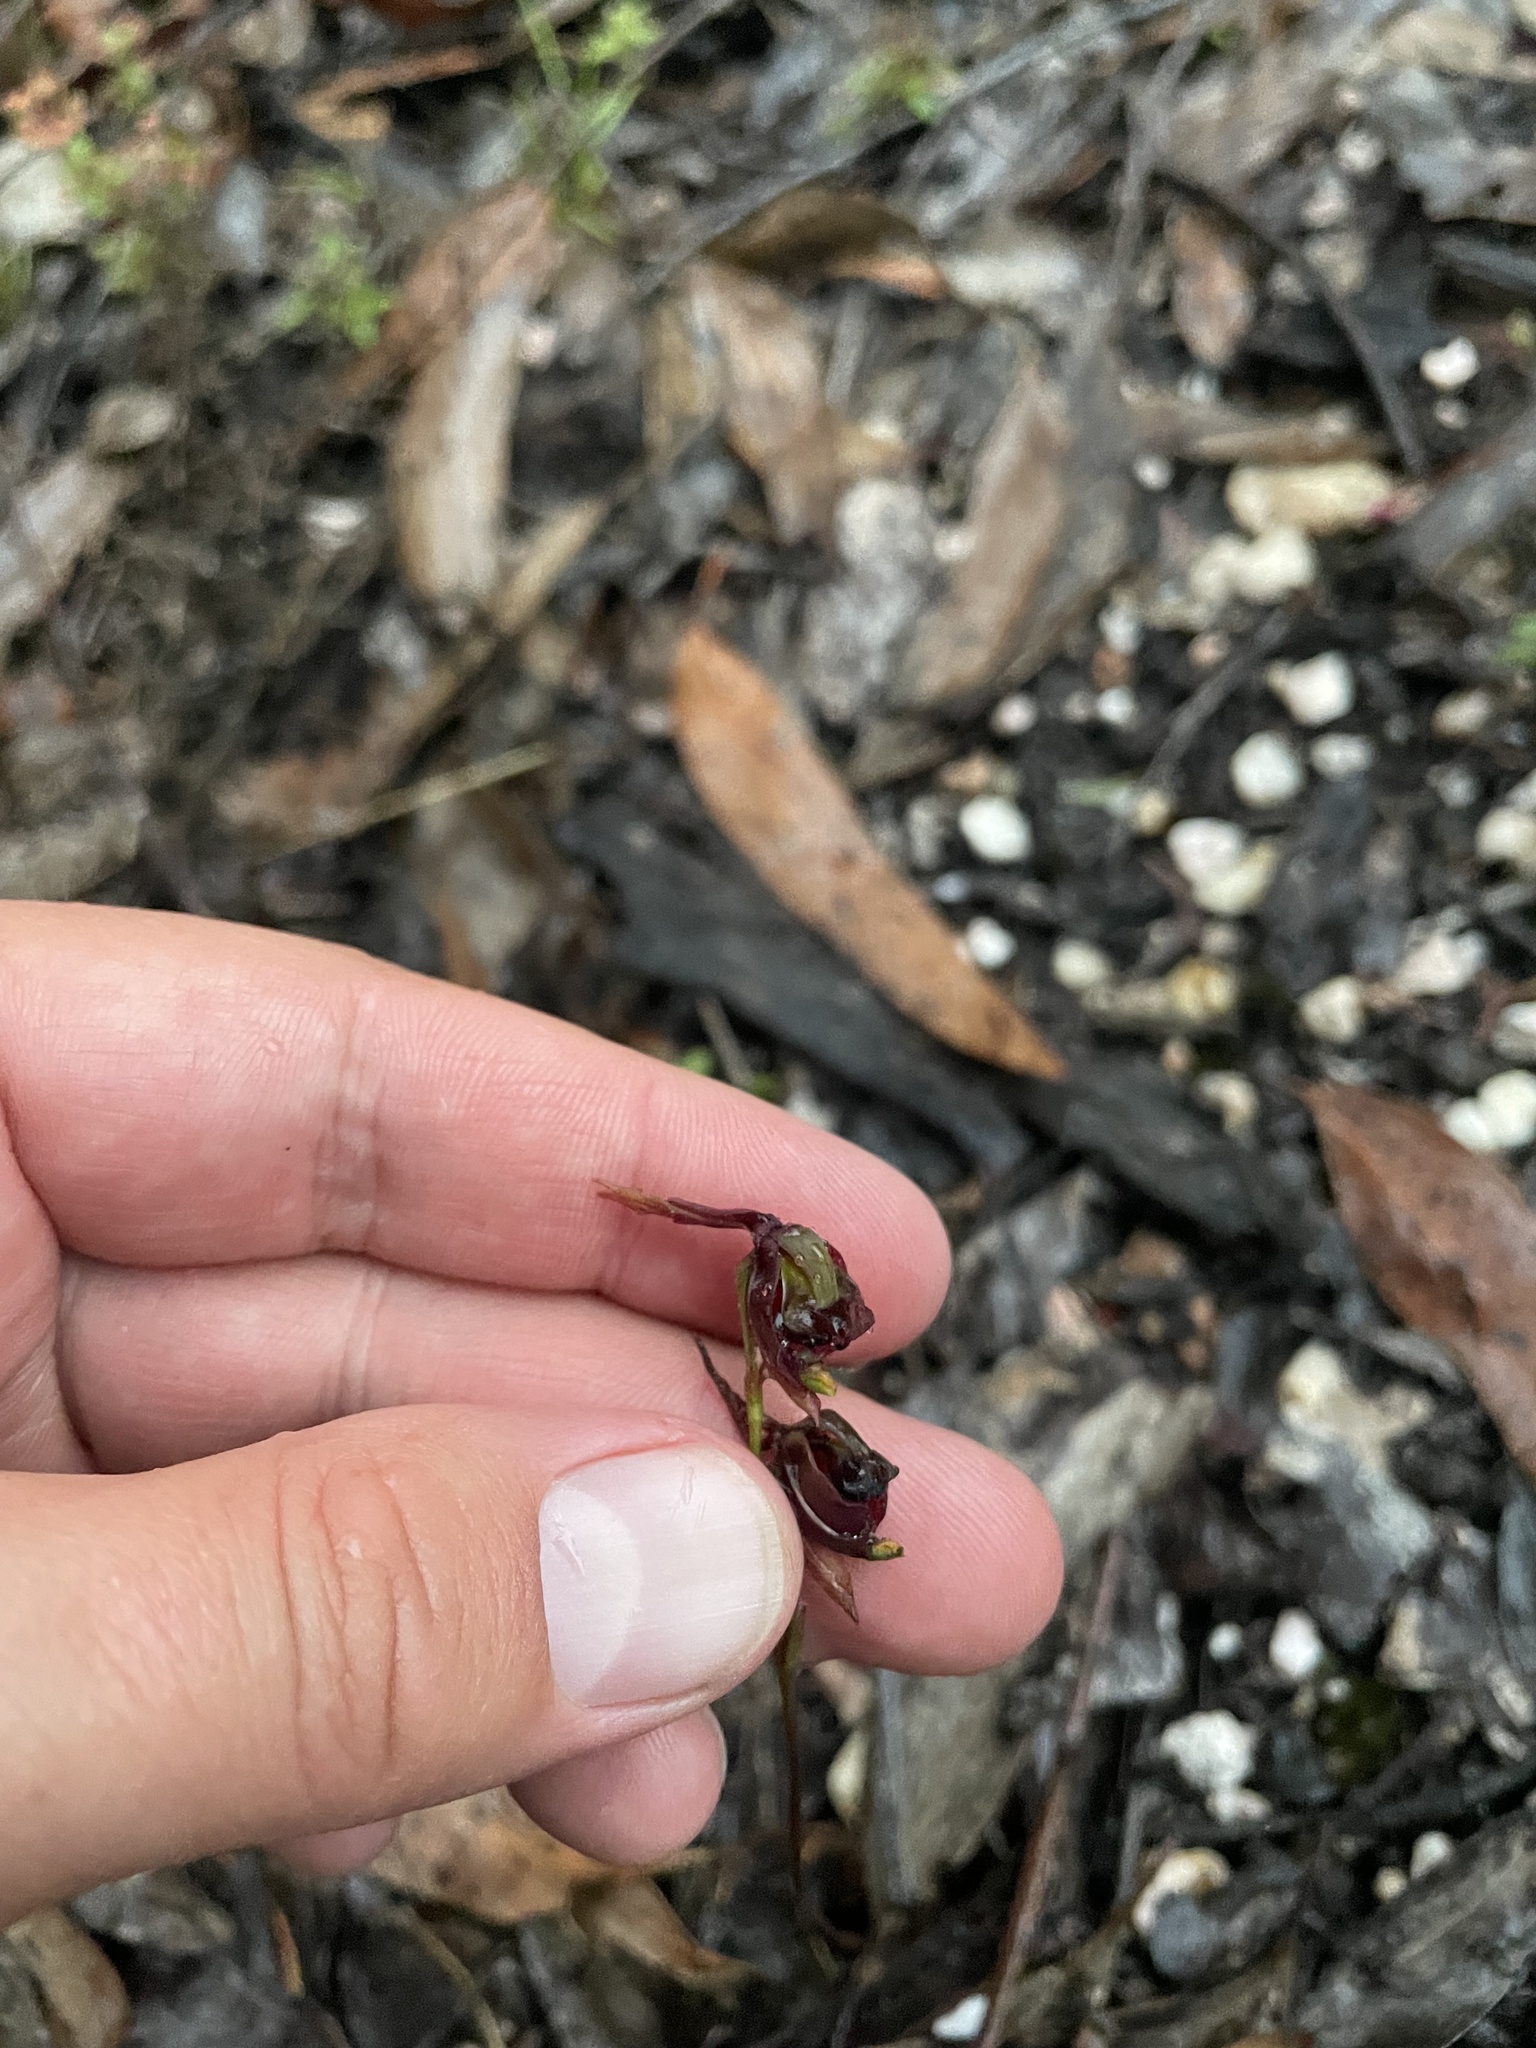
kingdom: Plantae
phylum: Tracheophyta
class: Liliopsida
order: Asparagales
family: Orchidaceae
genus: Caleana
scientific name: Caleana major
